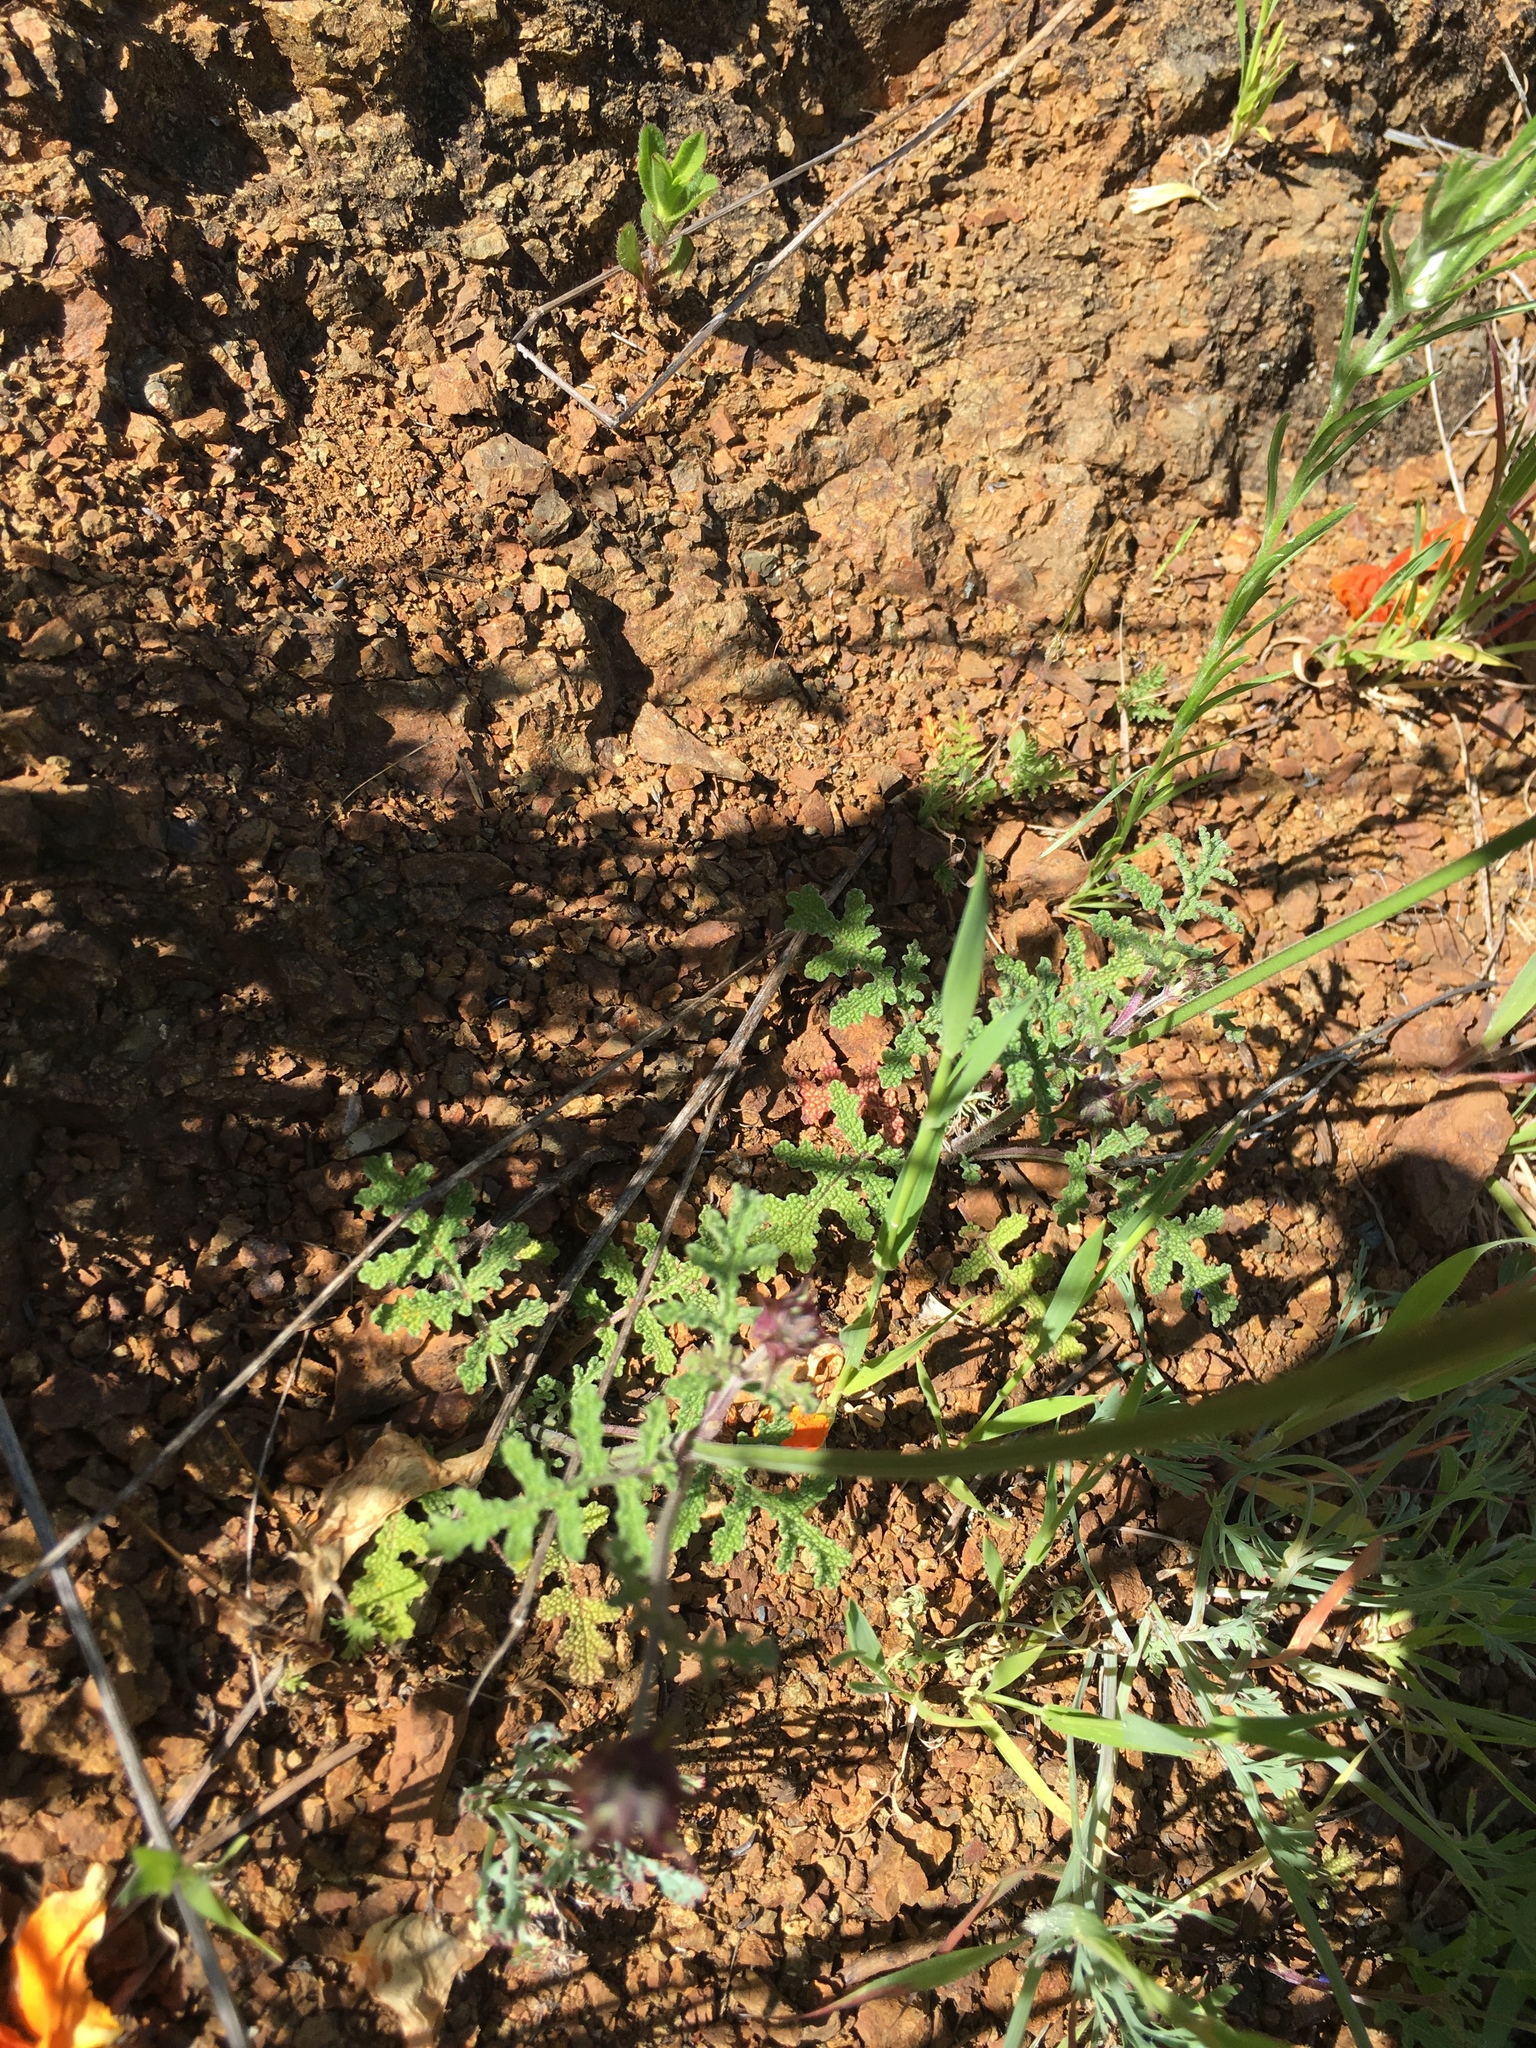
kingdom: Plantae
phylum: Tracheophyta
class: Magnoliopsida
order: Lamiales
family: Lamiaceae
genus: Salvia
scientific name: Salvia columbariae
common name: Chia
